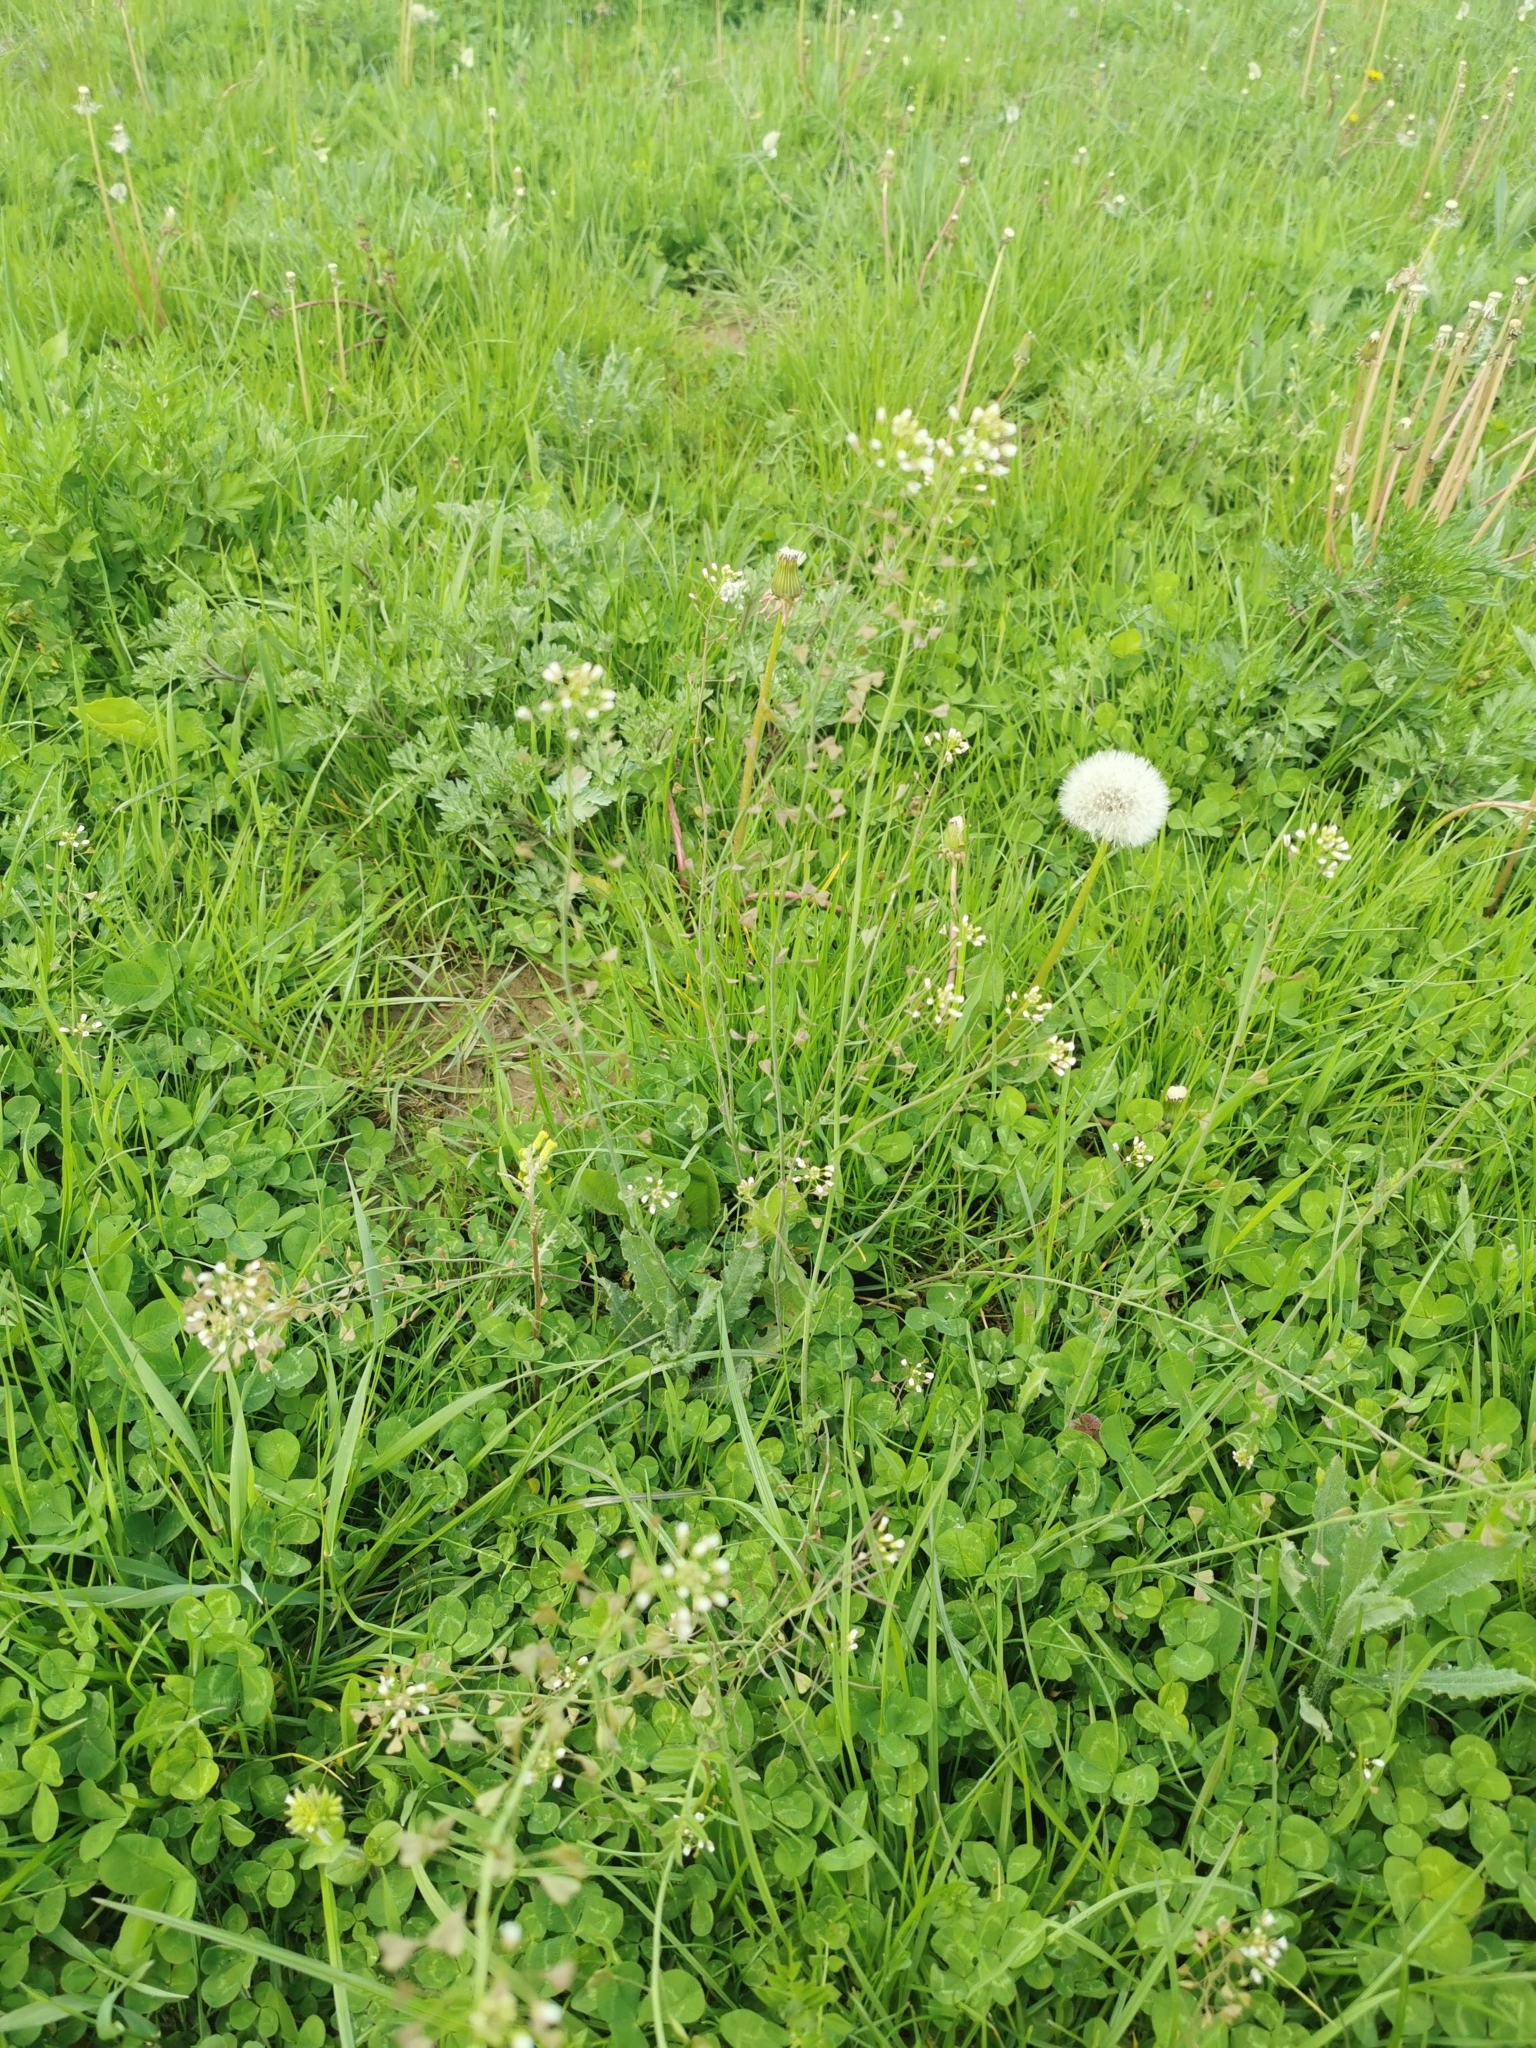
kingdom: Plantae
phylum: Tracheophyta
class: Magnoliopsida
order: Brassicales
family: Brassicaceae
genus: Capsella
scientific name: Capsella bursa-pastoris
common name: Shepherd's purse
